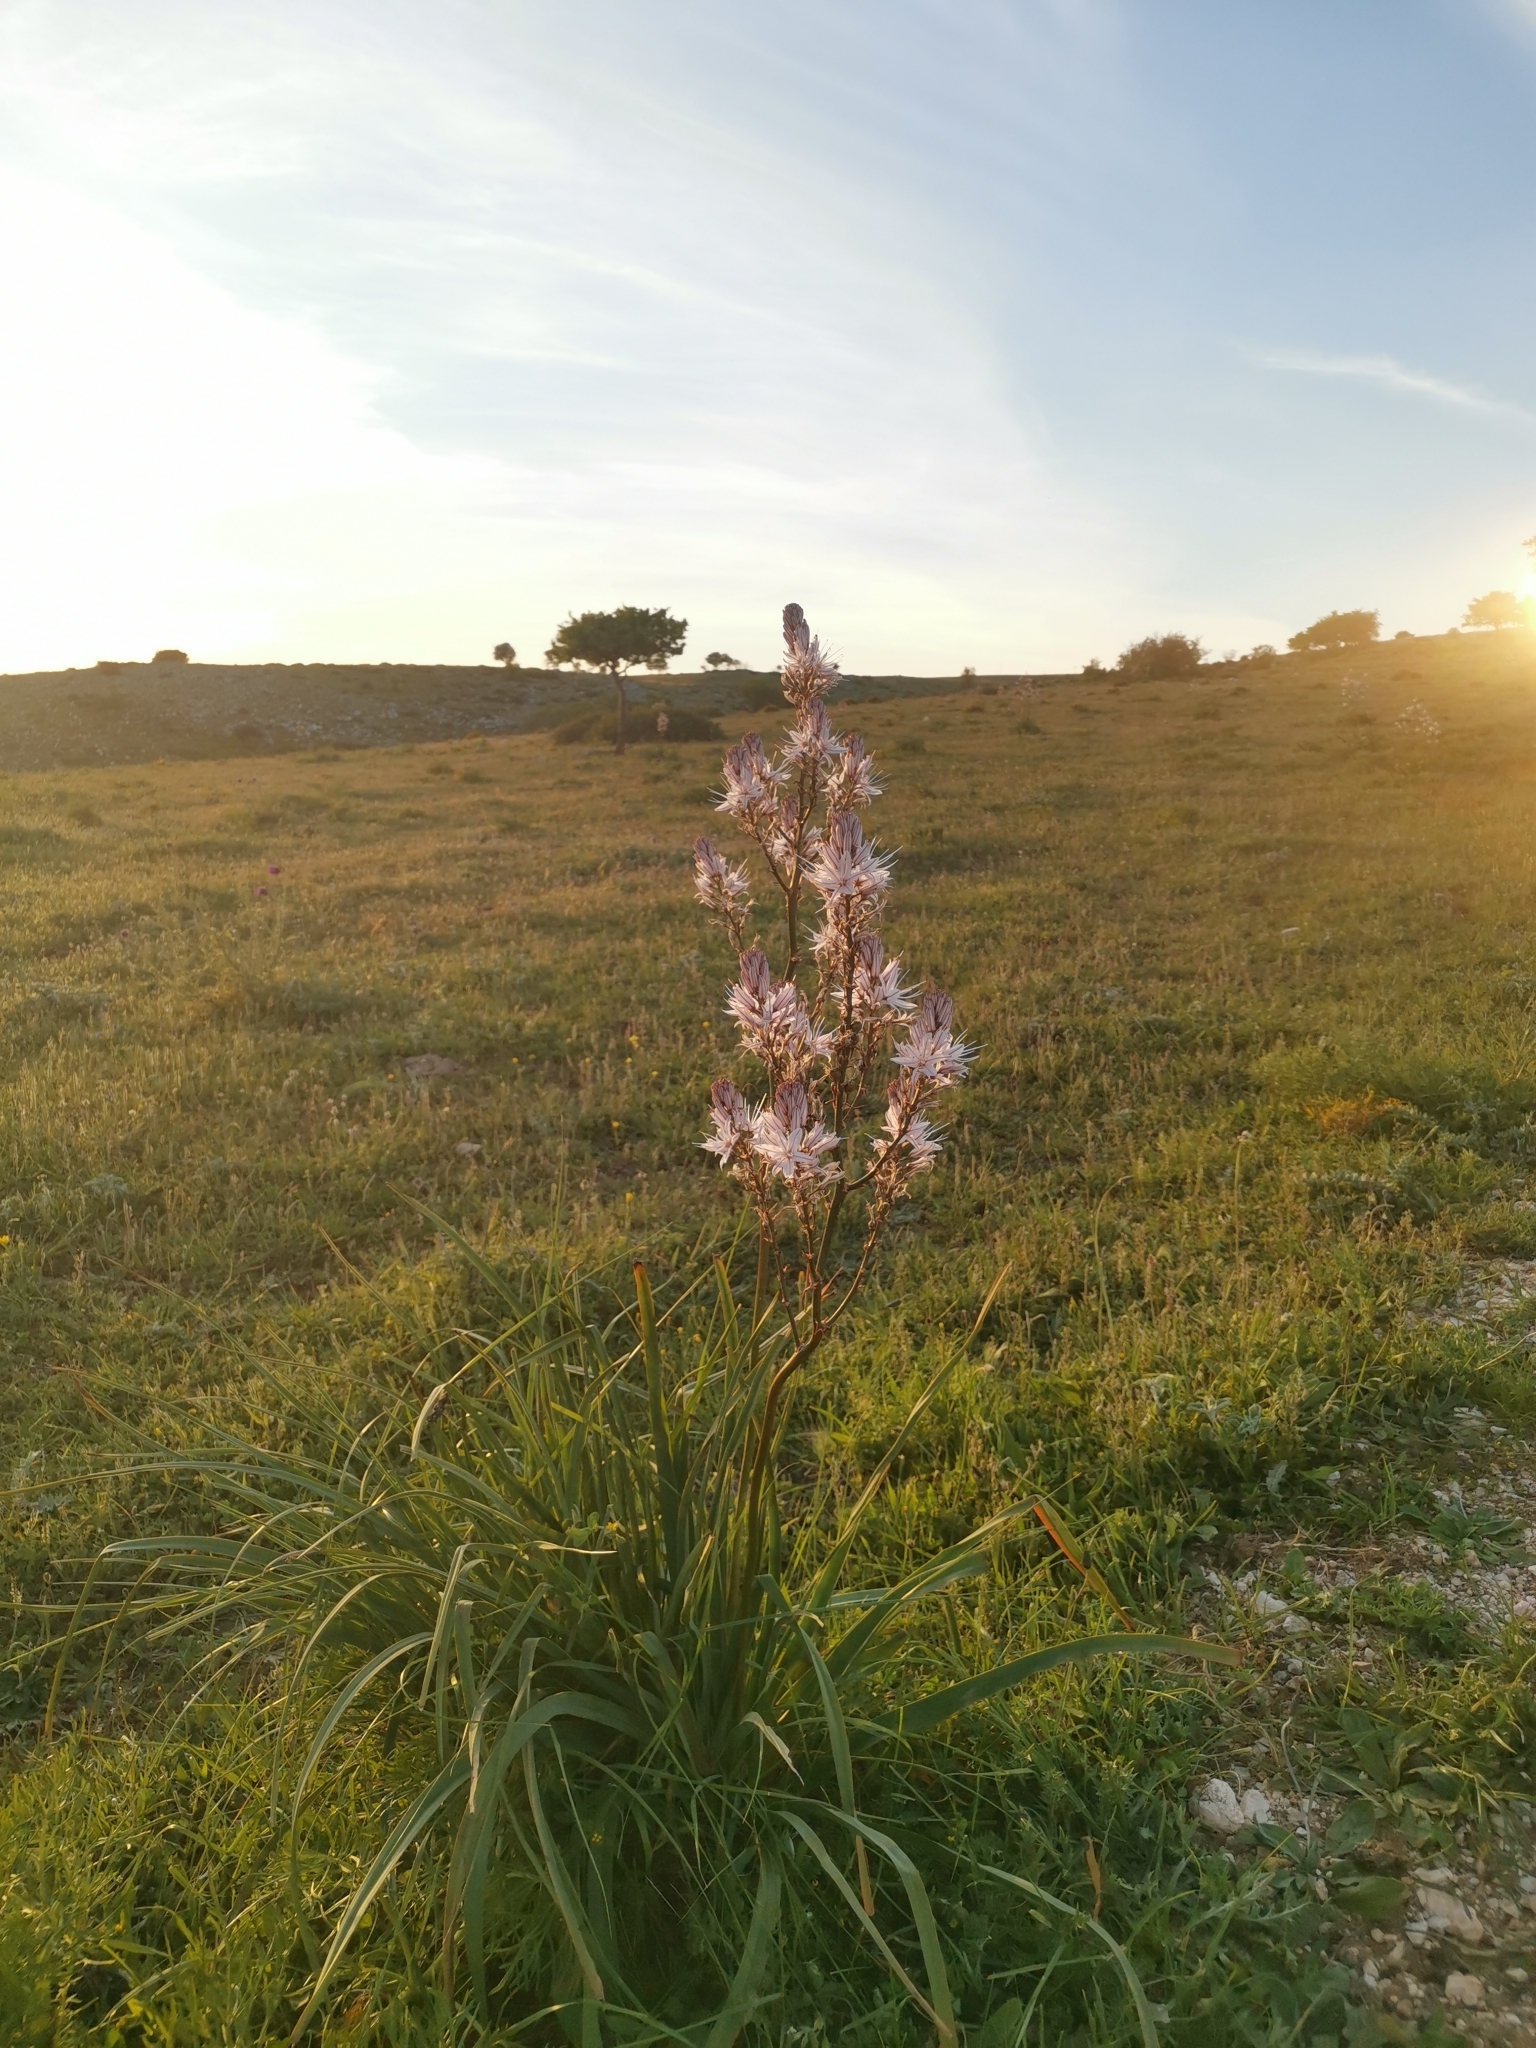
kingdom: Plantae
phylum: Tracheophyta
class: Liliopsida
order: Asparagales
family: Asphodelaceae
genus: Asphodelus
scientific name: Asphodelus ramosus
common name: Silverrod
